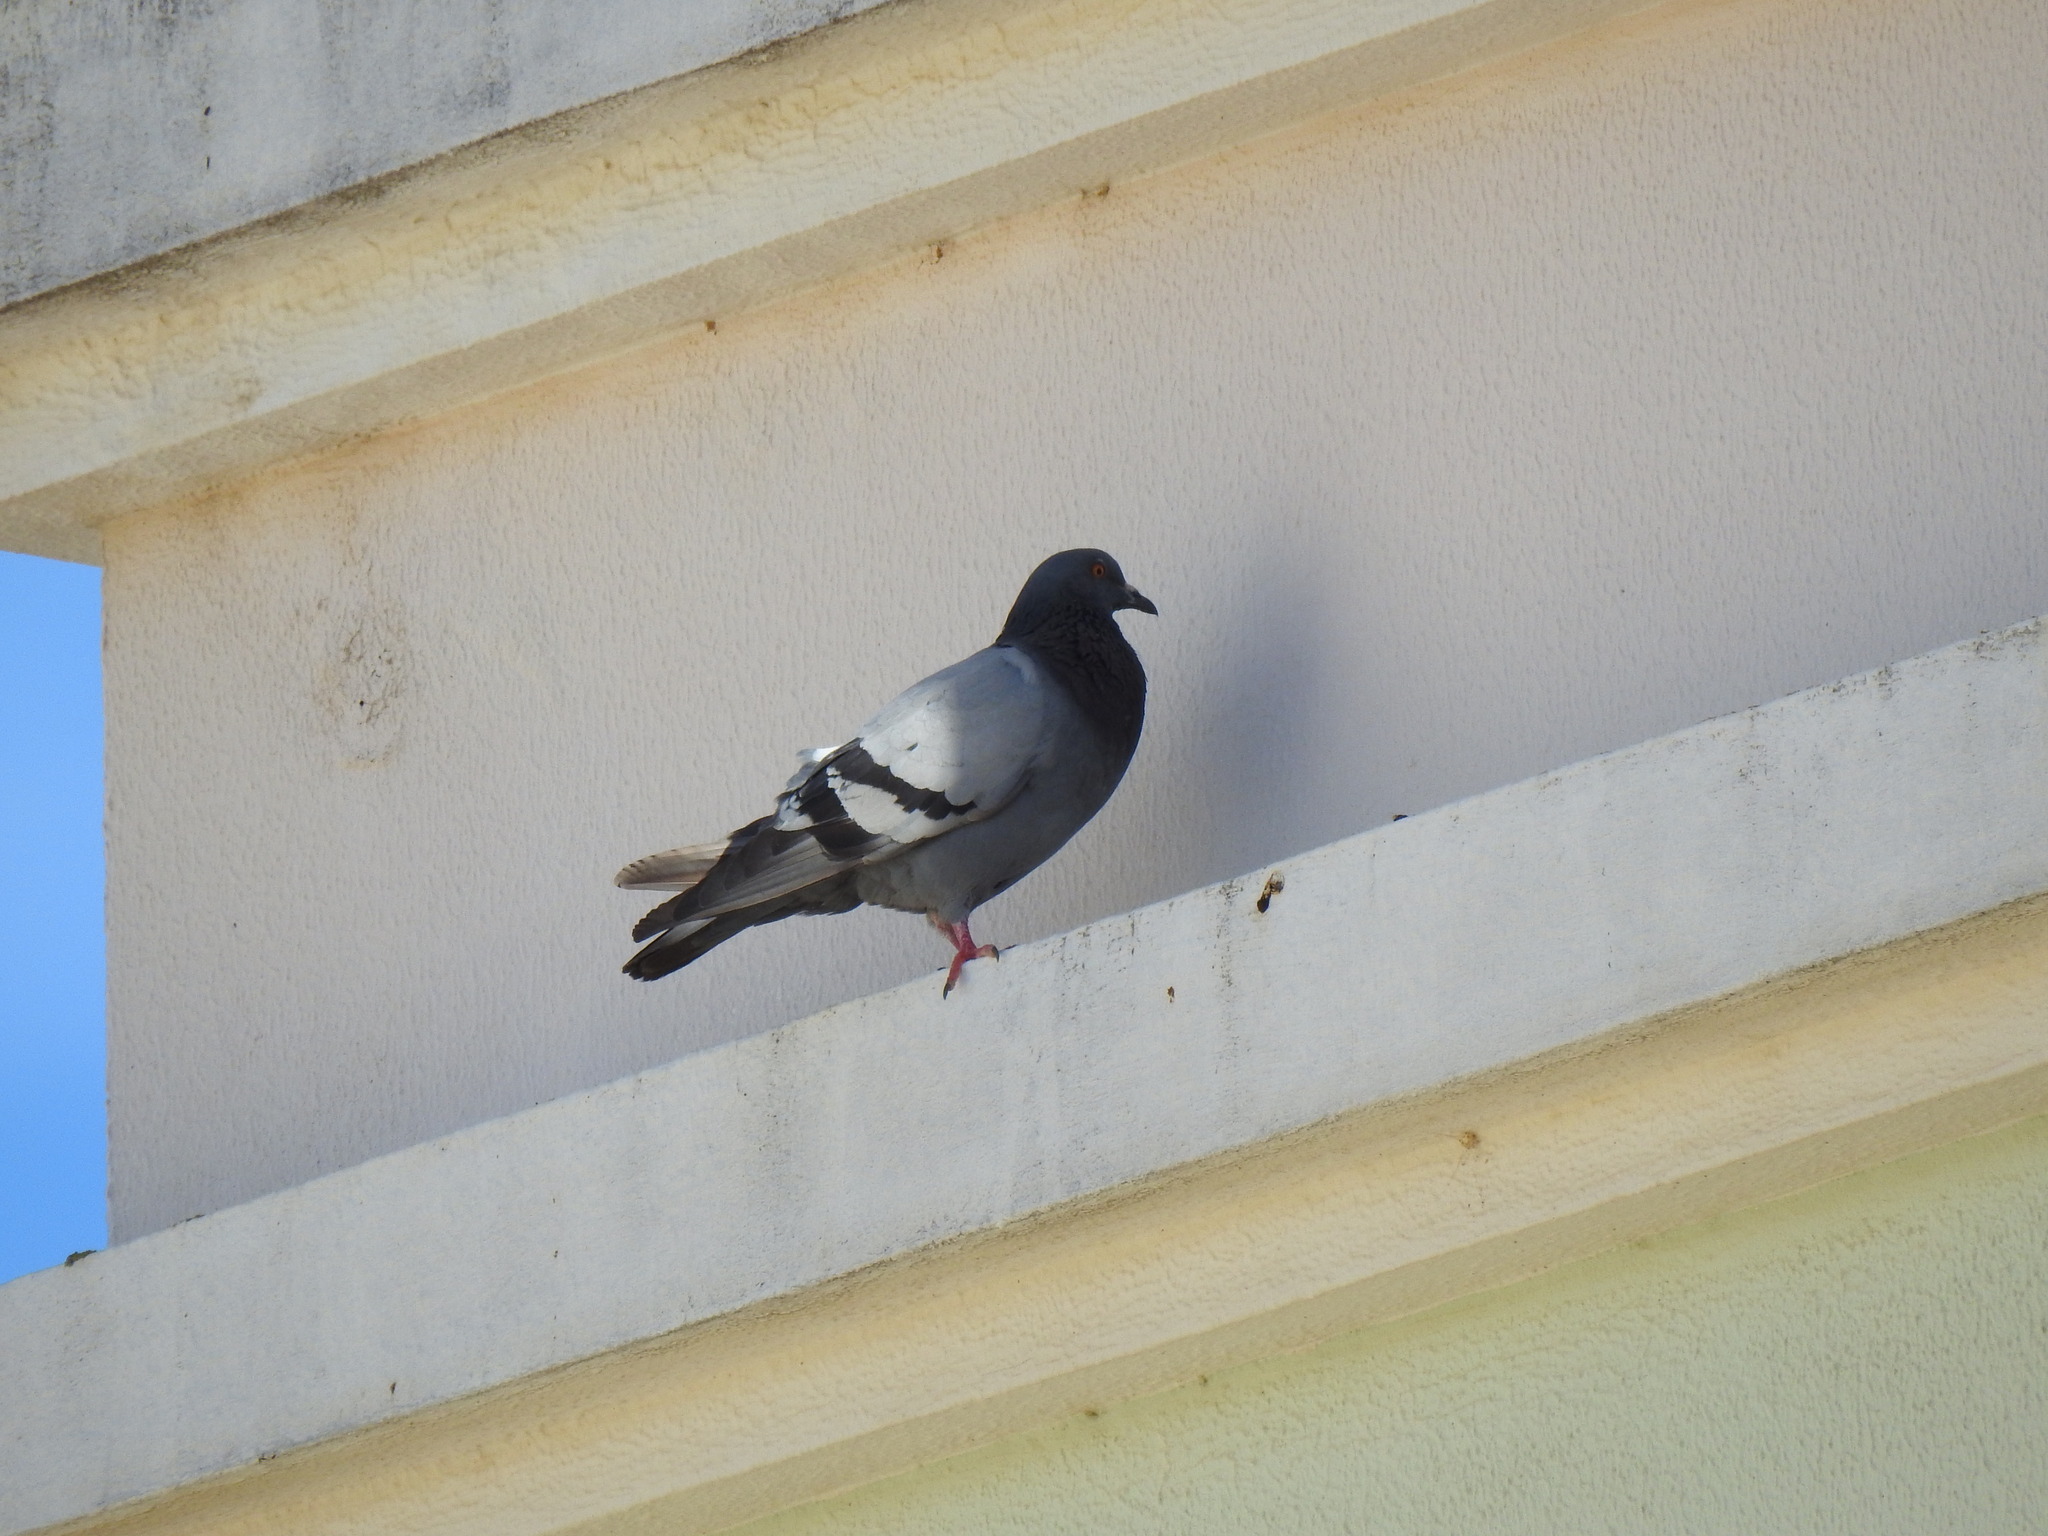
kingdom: Animalia
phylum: Chordata
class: Aves
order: Columbiformes
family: Columbidae
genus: Columba
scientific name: Columba livia
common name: Rock pigeon
